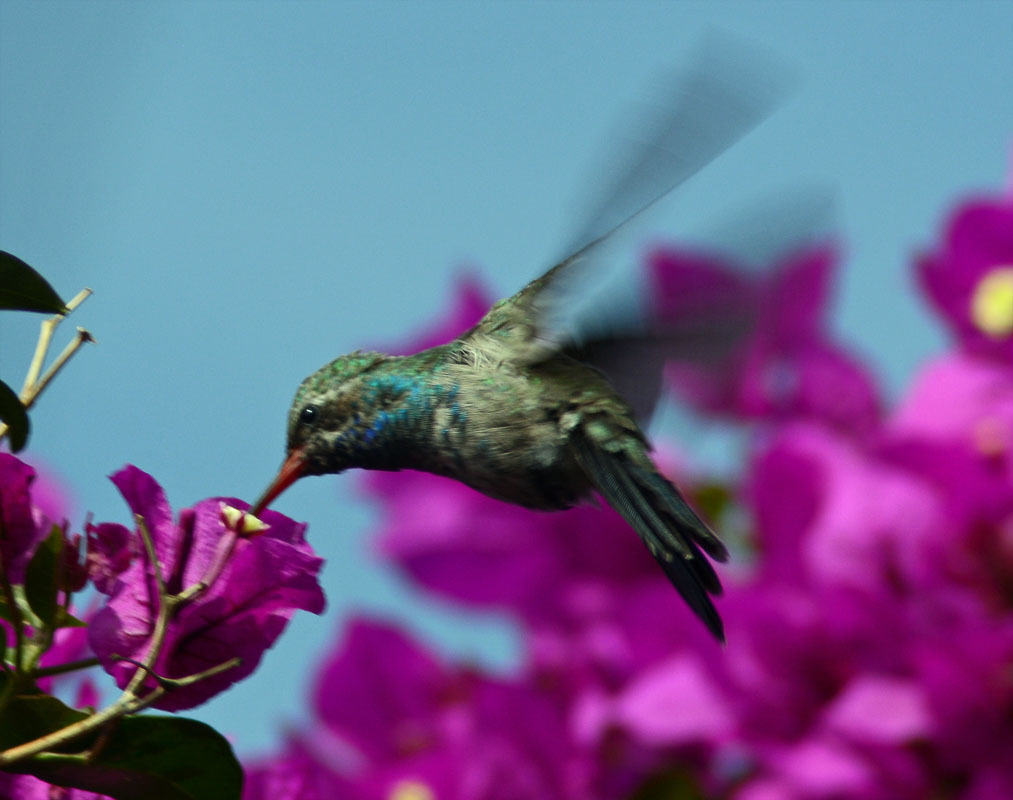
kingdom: Animalia
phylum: Chordata
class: Aves
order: Apodiformes
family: Trochilidae
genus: Cynanthus
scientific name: Cynanthus latirostris
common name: Broad-billed hummingbird
